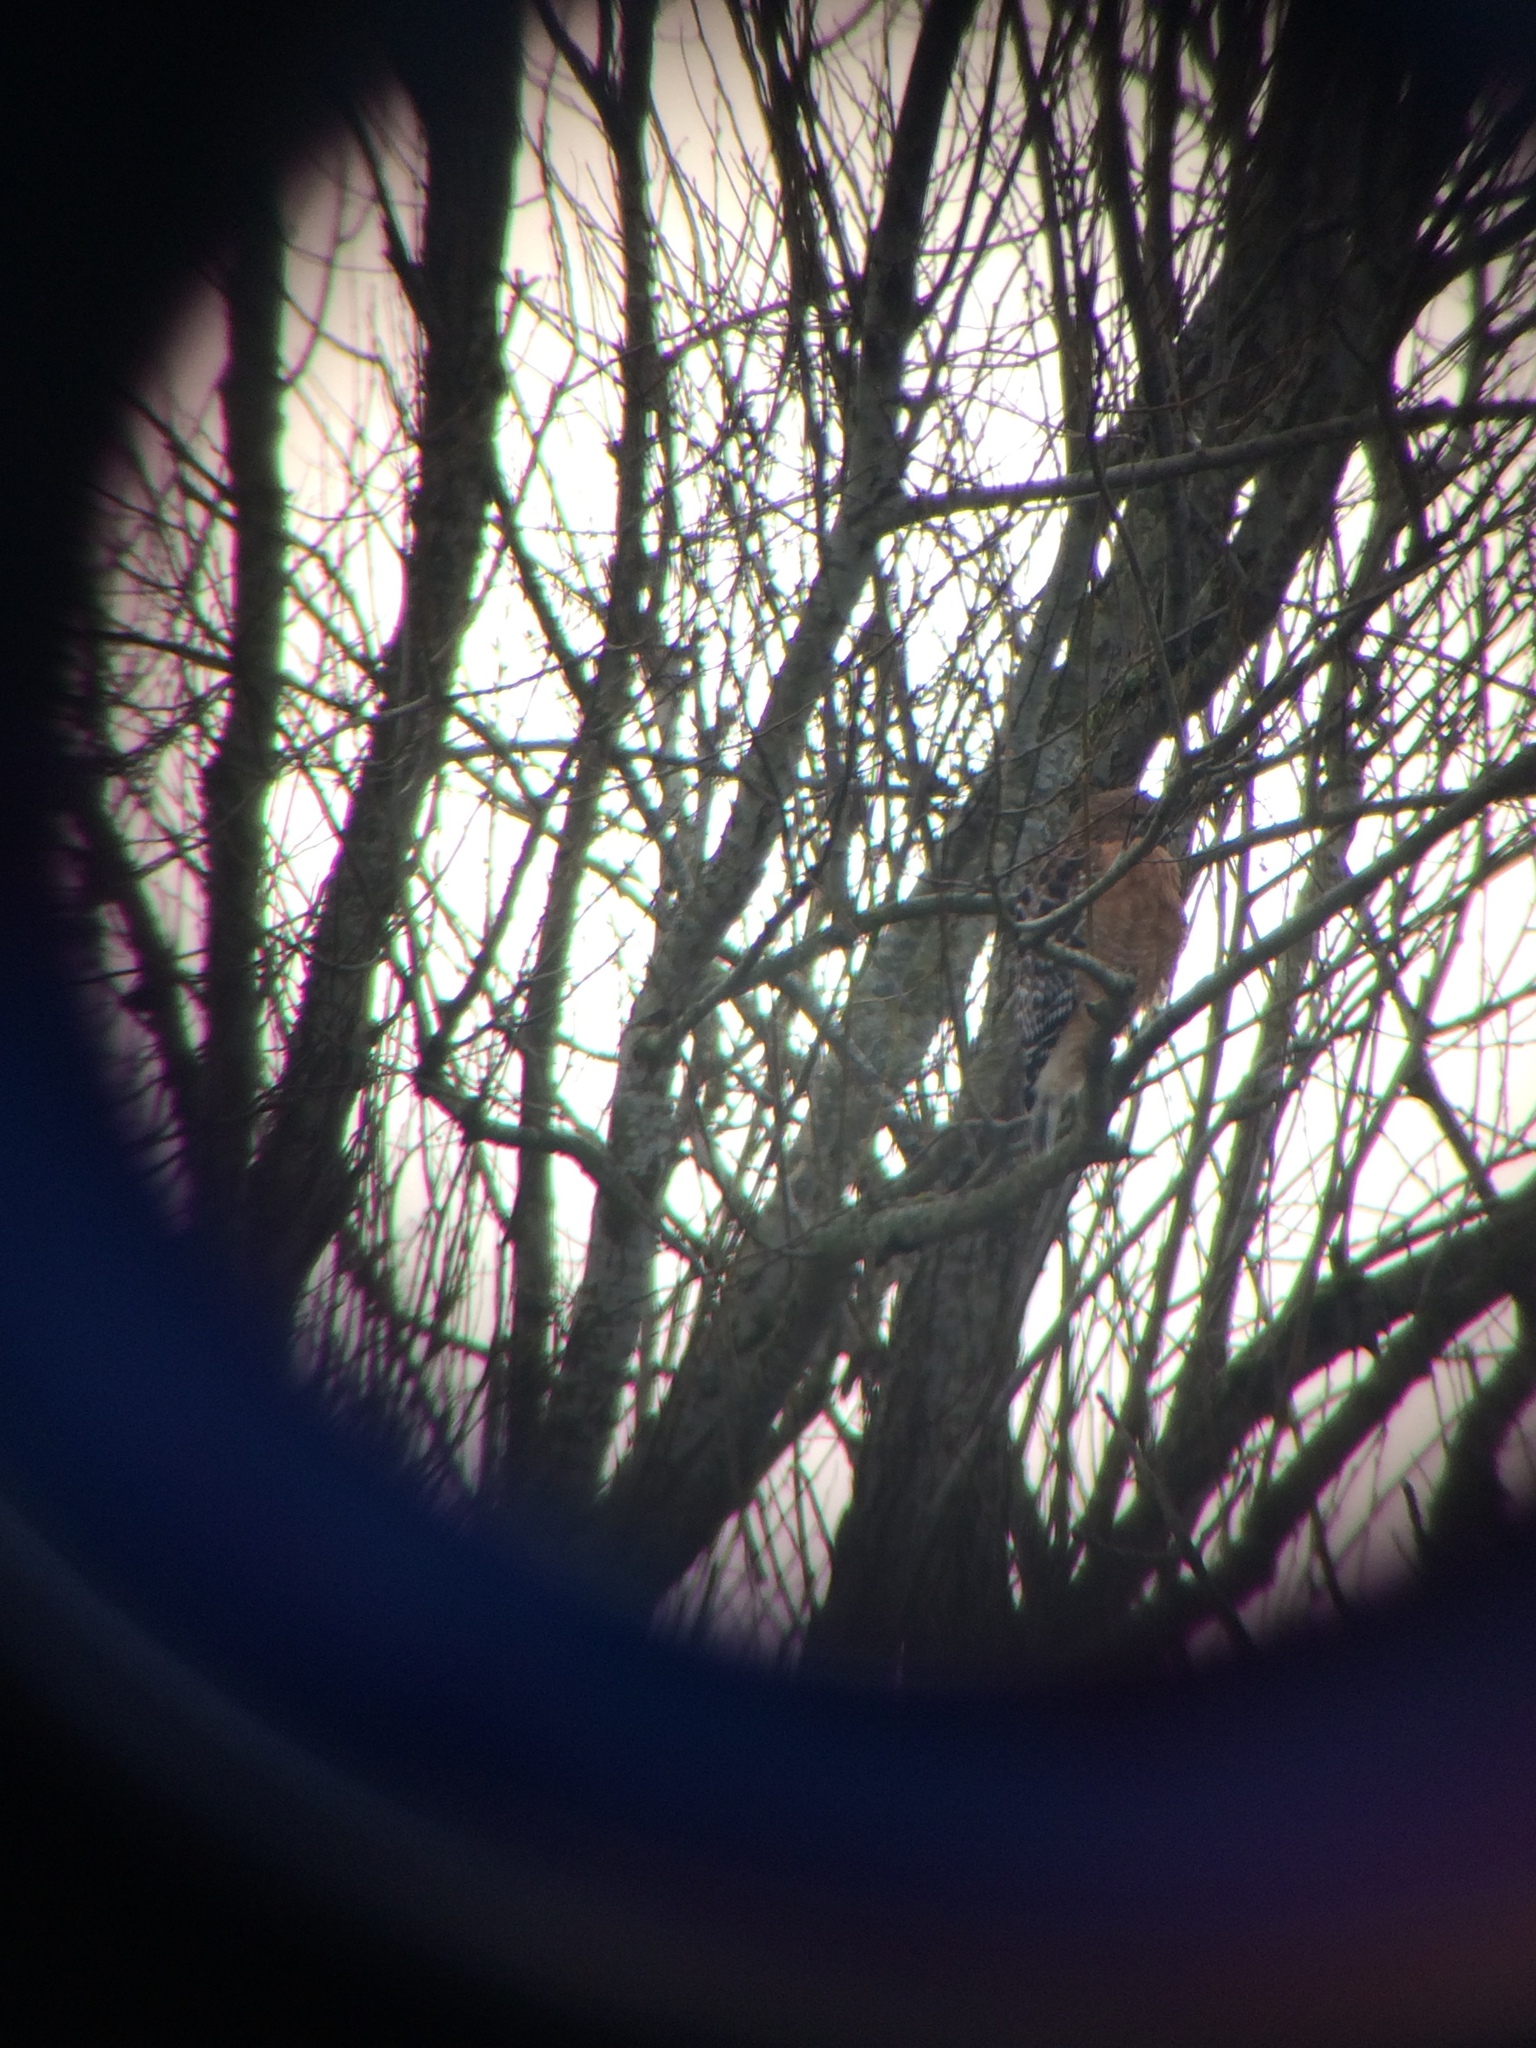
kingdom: Animalia
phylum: Chordata
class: Aves
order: Accipitriformes
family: Accipitridae
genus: Buteo
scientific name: Buteo lineatus
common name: Red-shouldered hawk
